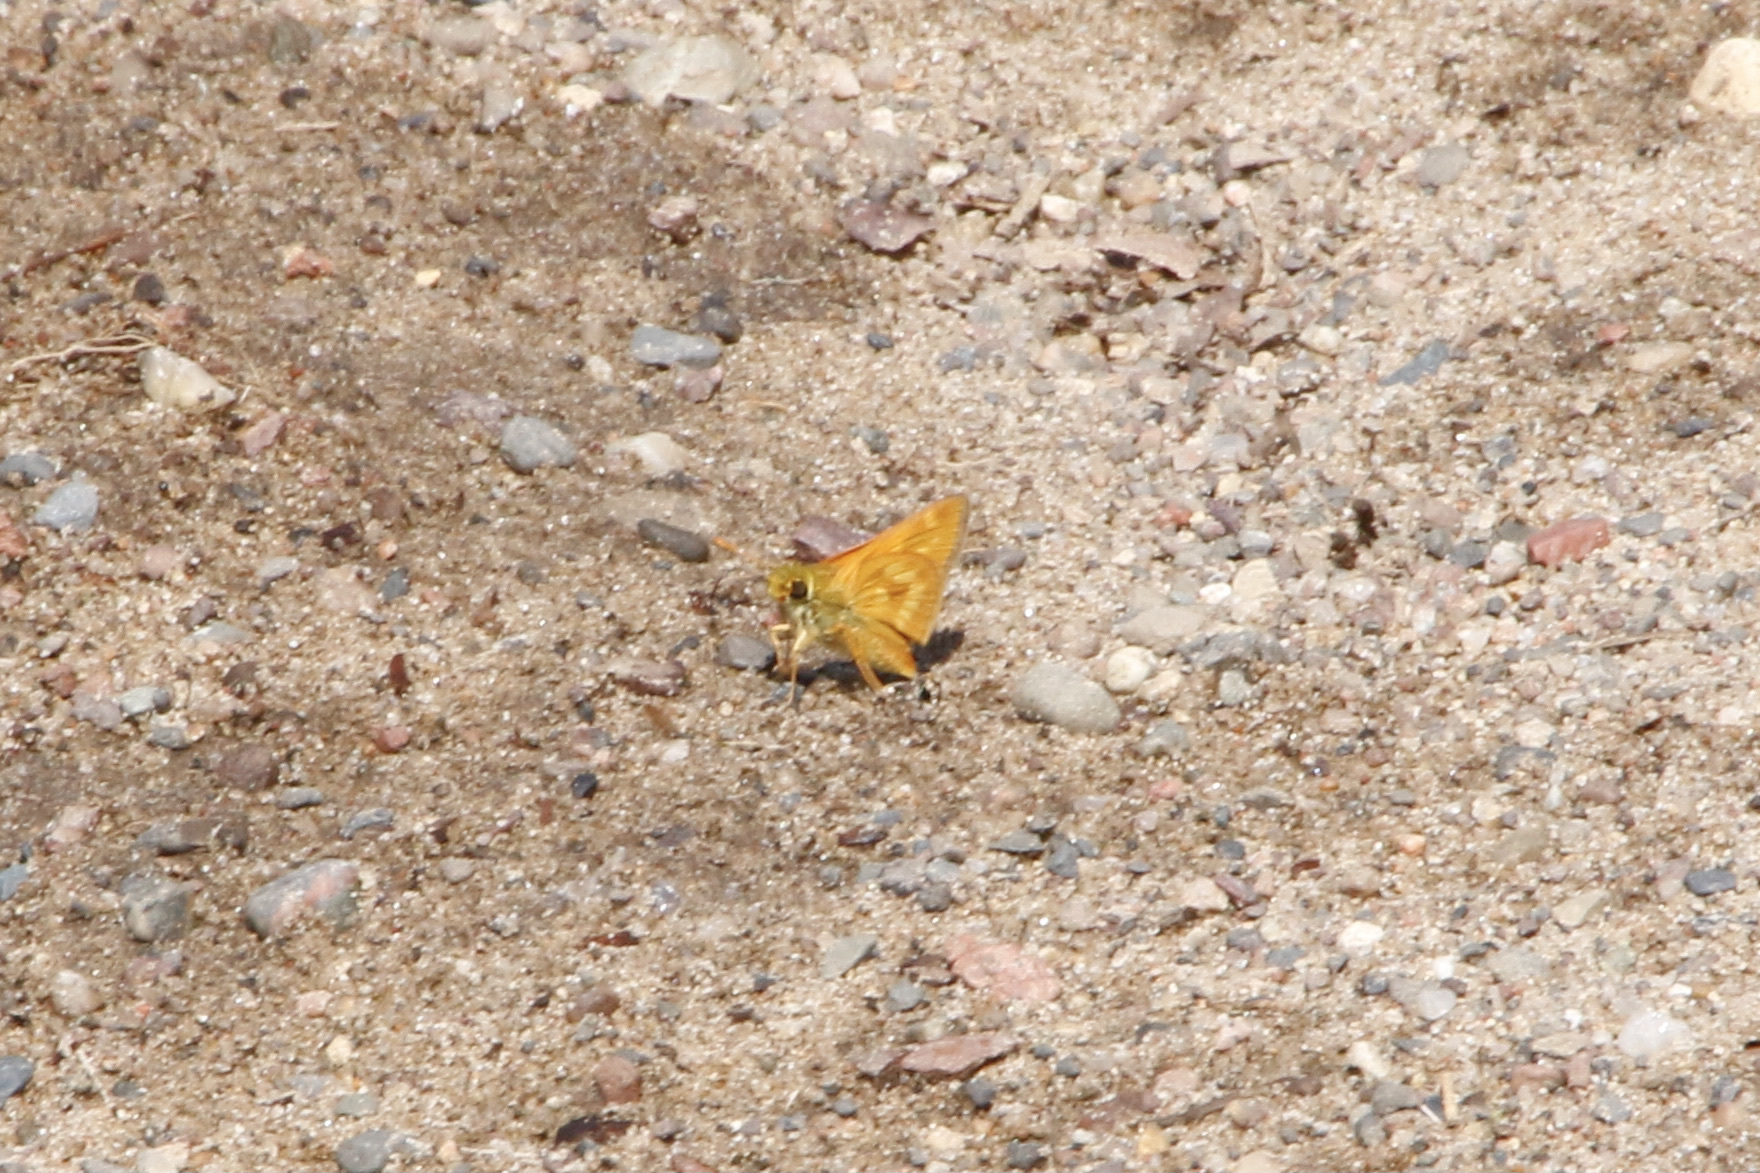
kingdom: Animalia
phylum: Arthropoda
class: Insecta
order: Lepidoptera
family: Hesperiidae
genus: Polites
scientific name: Polites mystic
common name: Long dash
